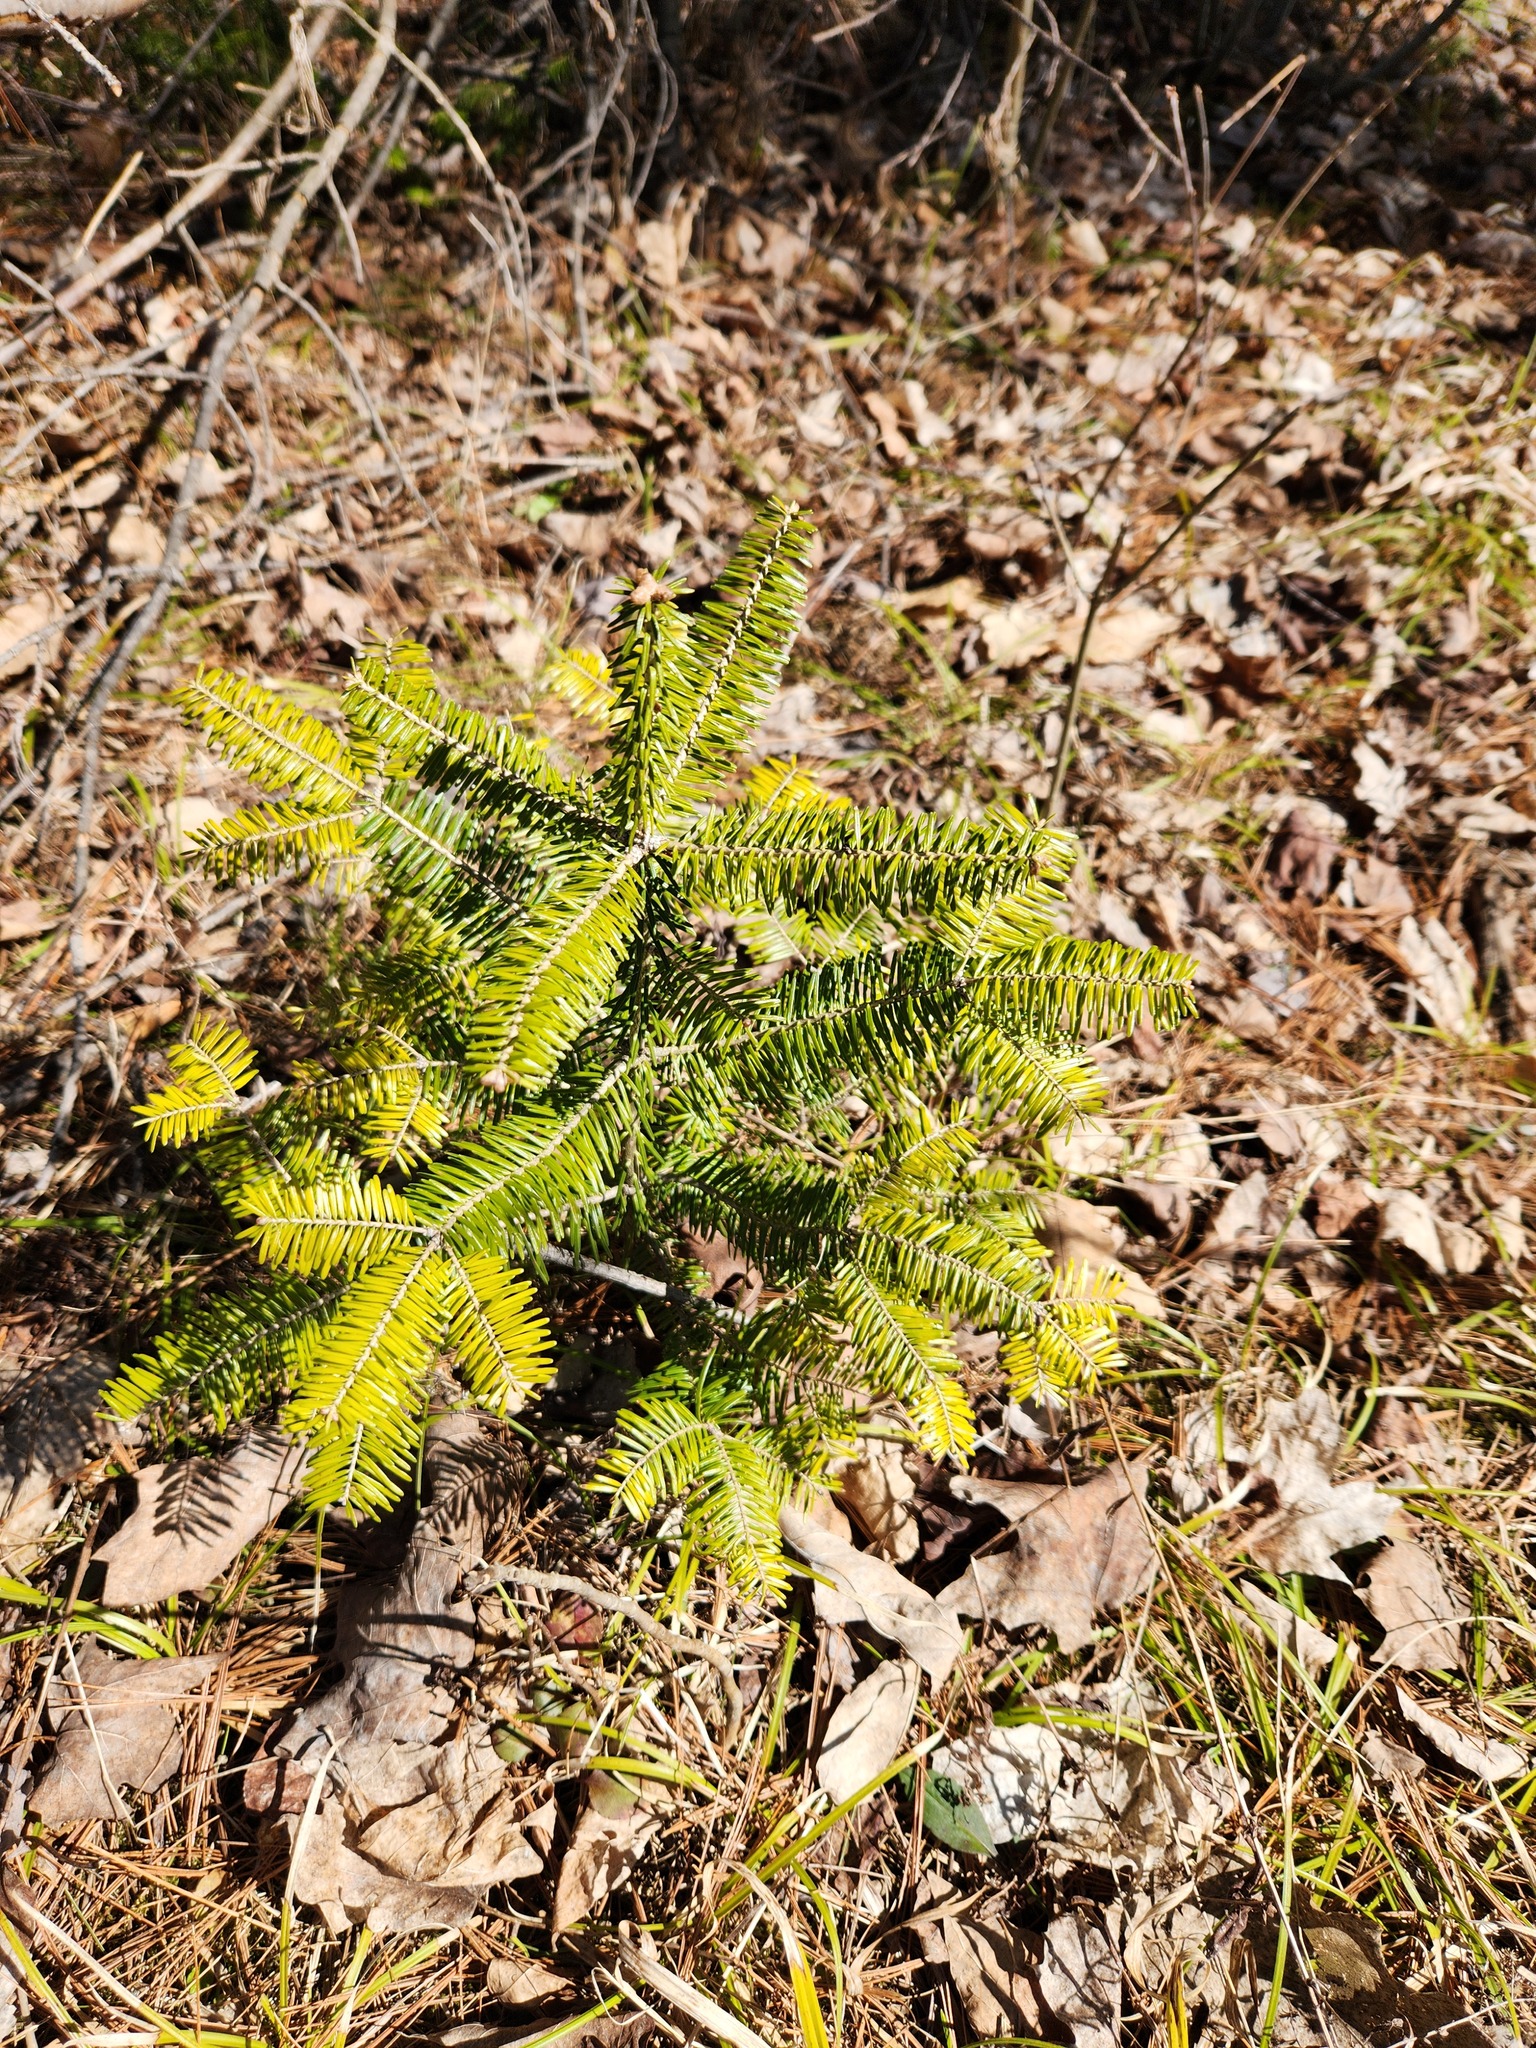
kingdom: Plantae
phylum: Tracheophyta
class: Pinopsida
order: Pinales
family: Pinaceae
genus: Abies
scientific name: Abies balsamea
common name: Balsam fir
